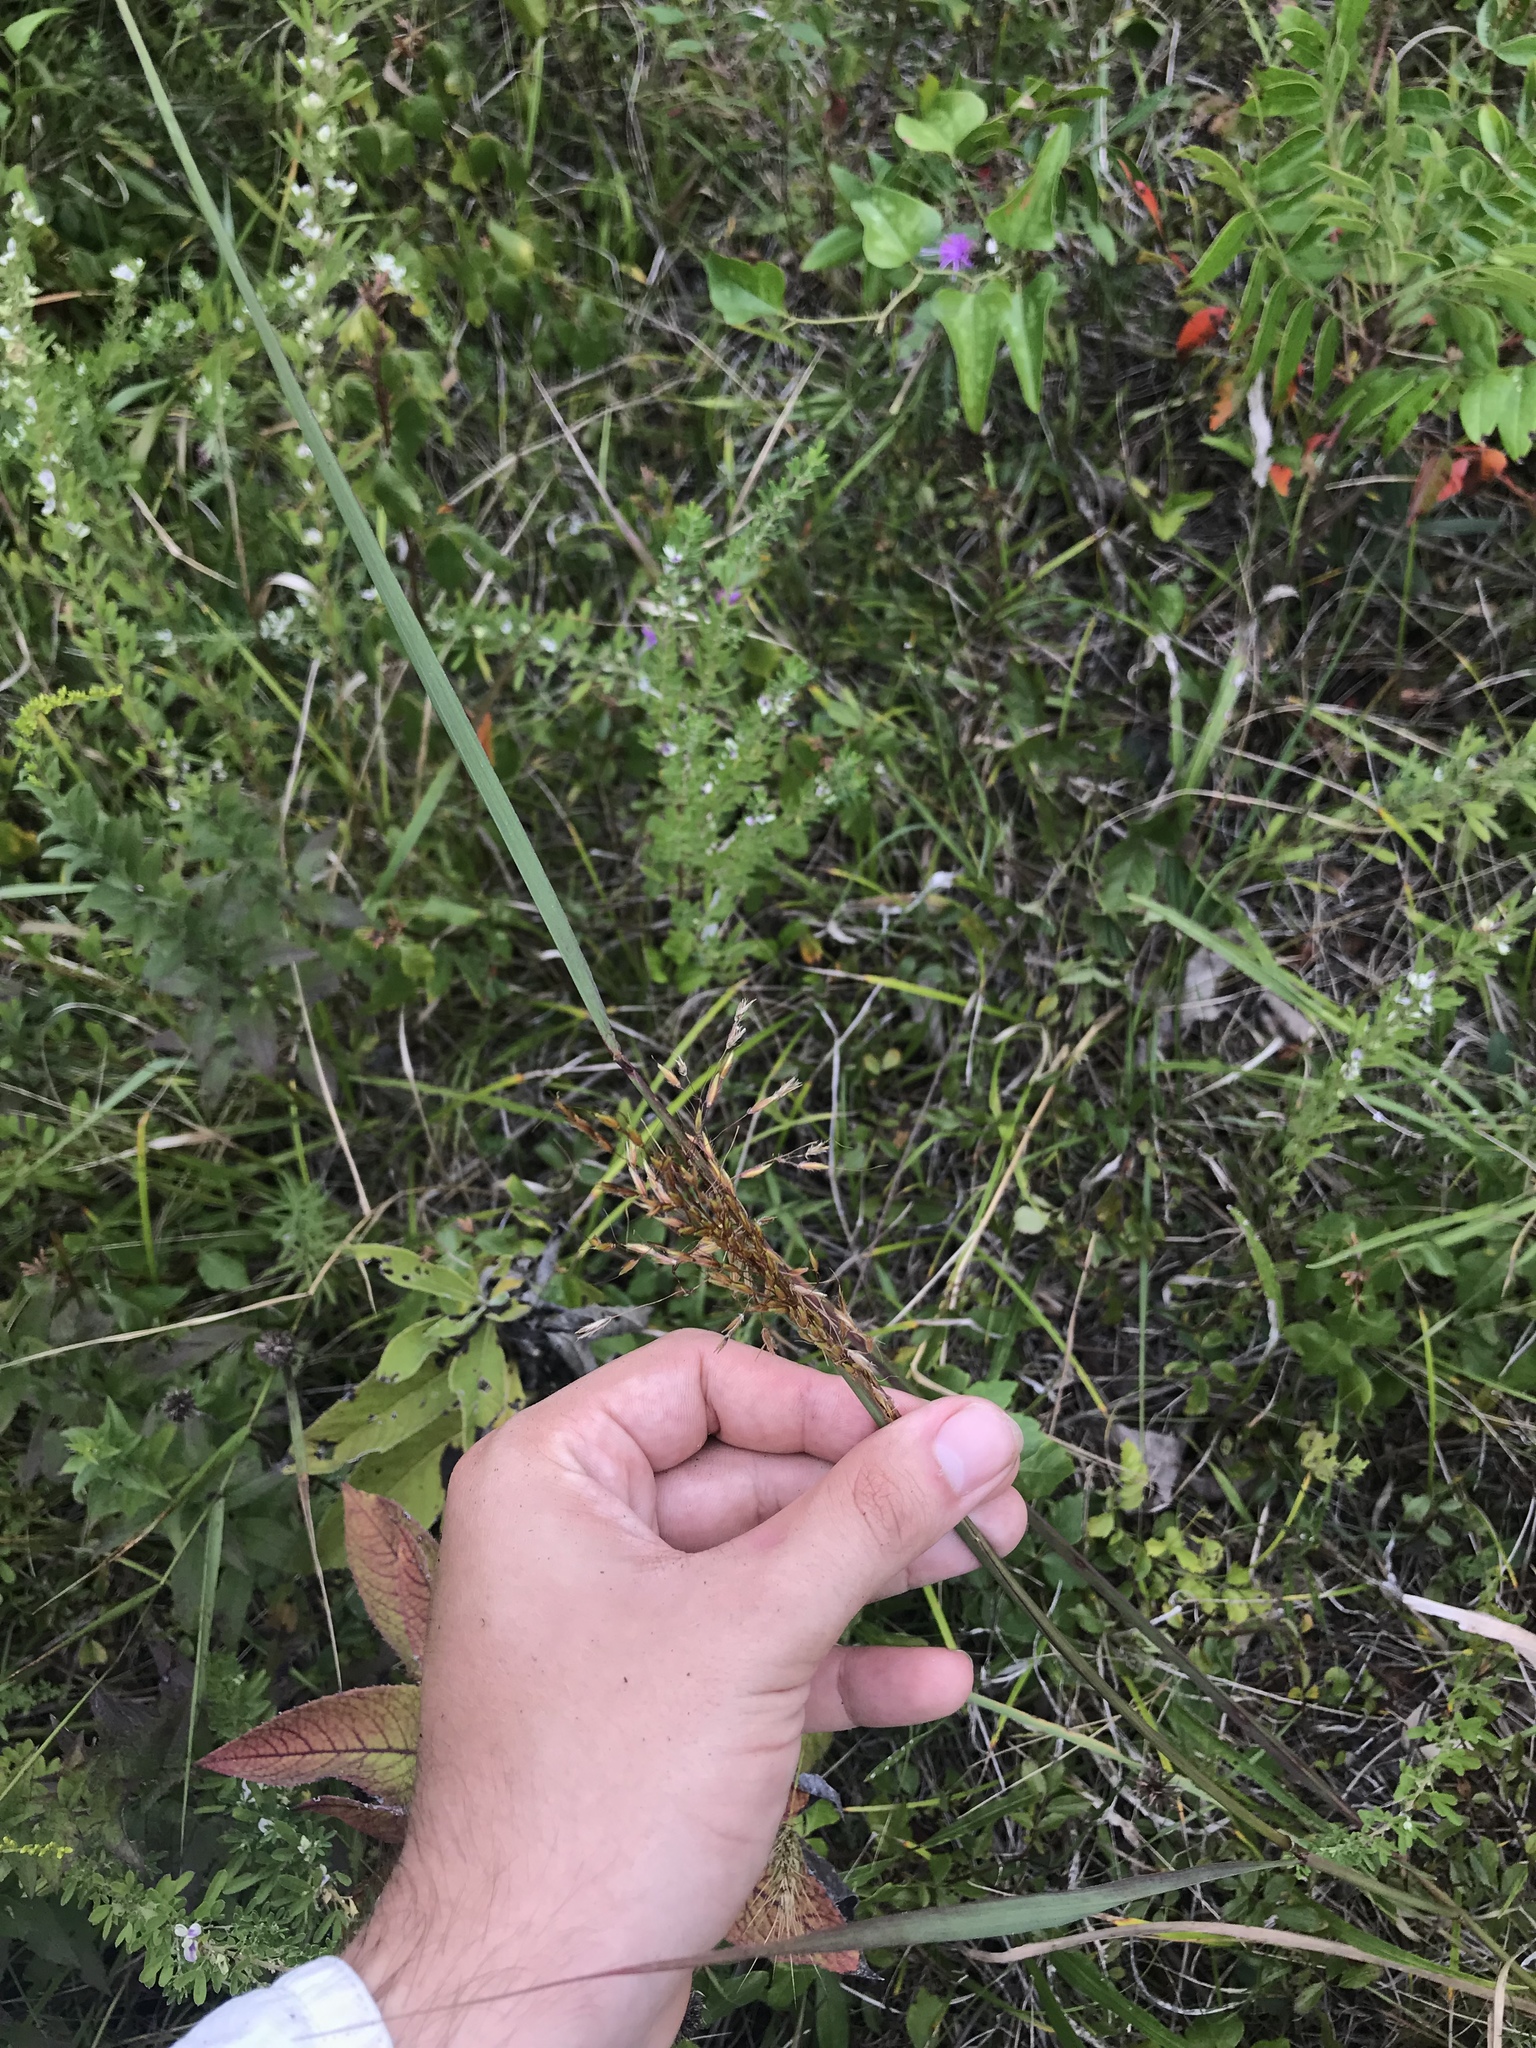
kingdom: Plantae
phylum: Tracheophyta
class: Liliopsida
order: Poales
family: Poaceae
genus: Sorghastrum
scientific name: Sorghastrum nutans
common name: Indian grass
